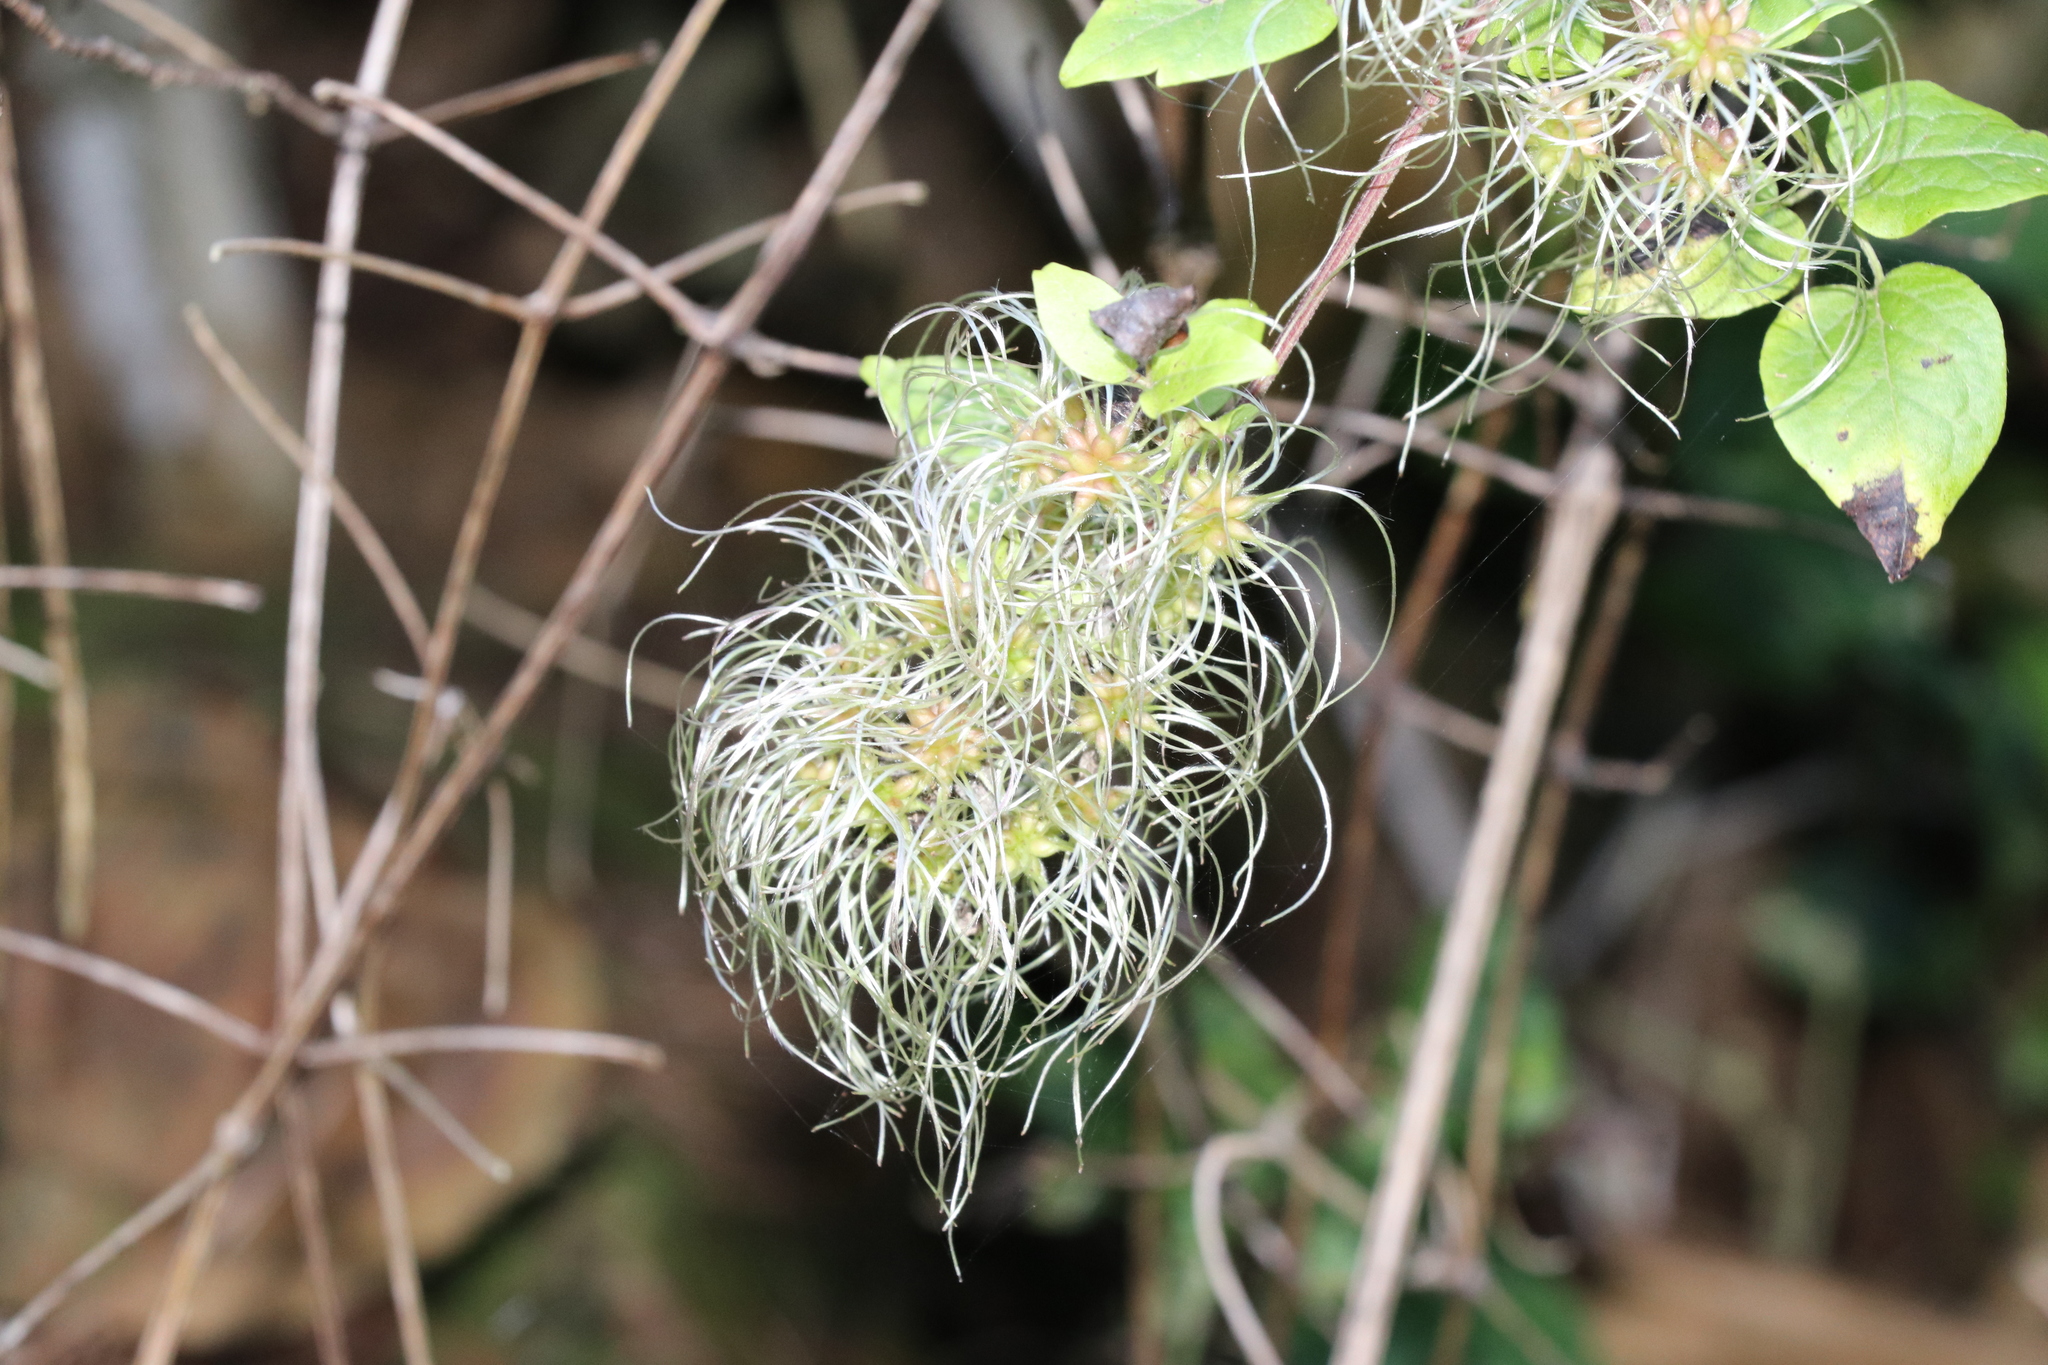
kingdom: Plantae
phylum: Tracheophyta
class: Magnoliopsida
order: Ranunculales
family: Ranunculaceae
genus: Clematis
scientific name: Clematis vitalba
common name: Evergreen clematis
